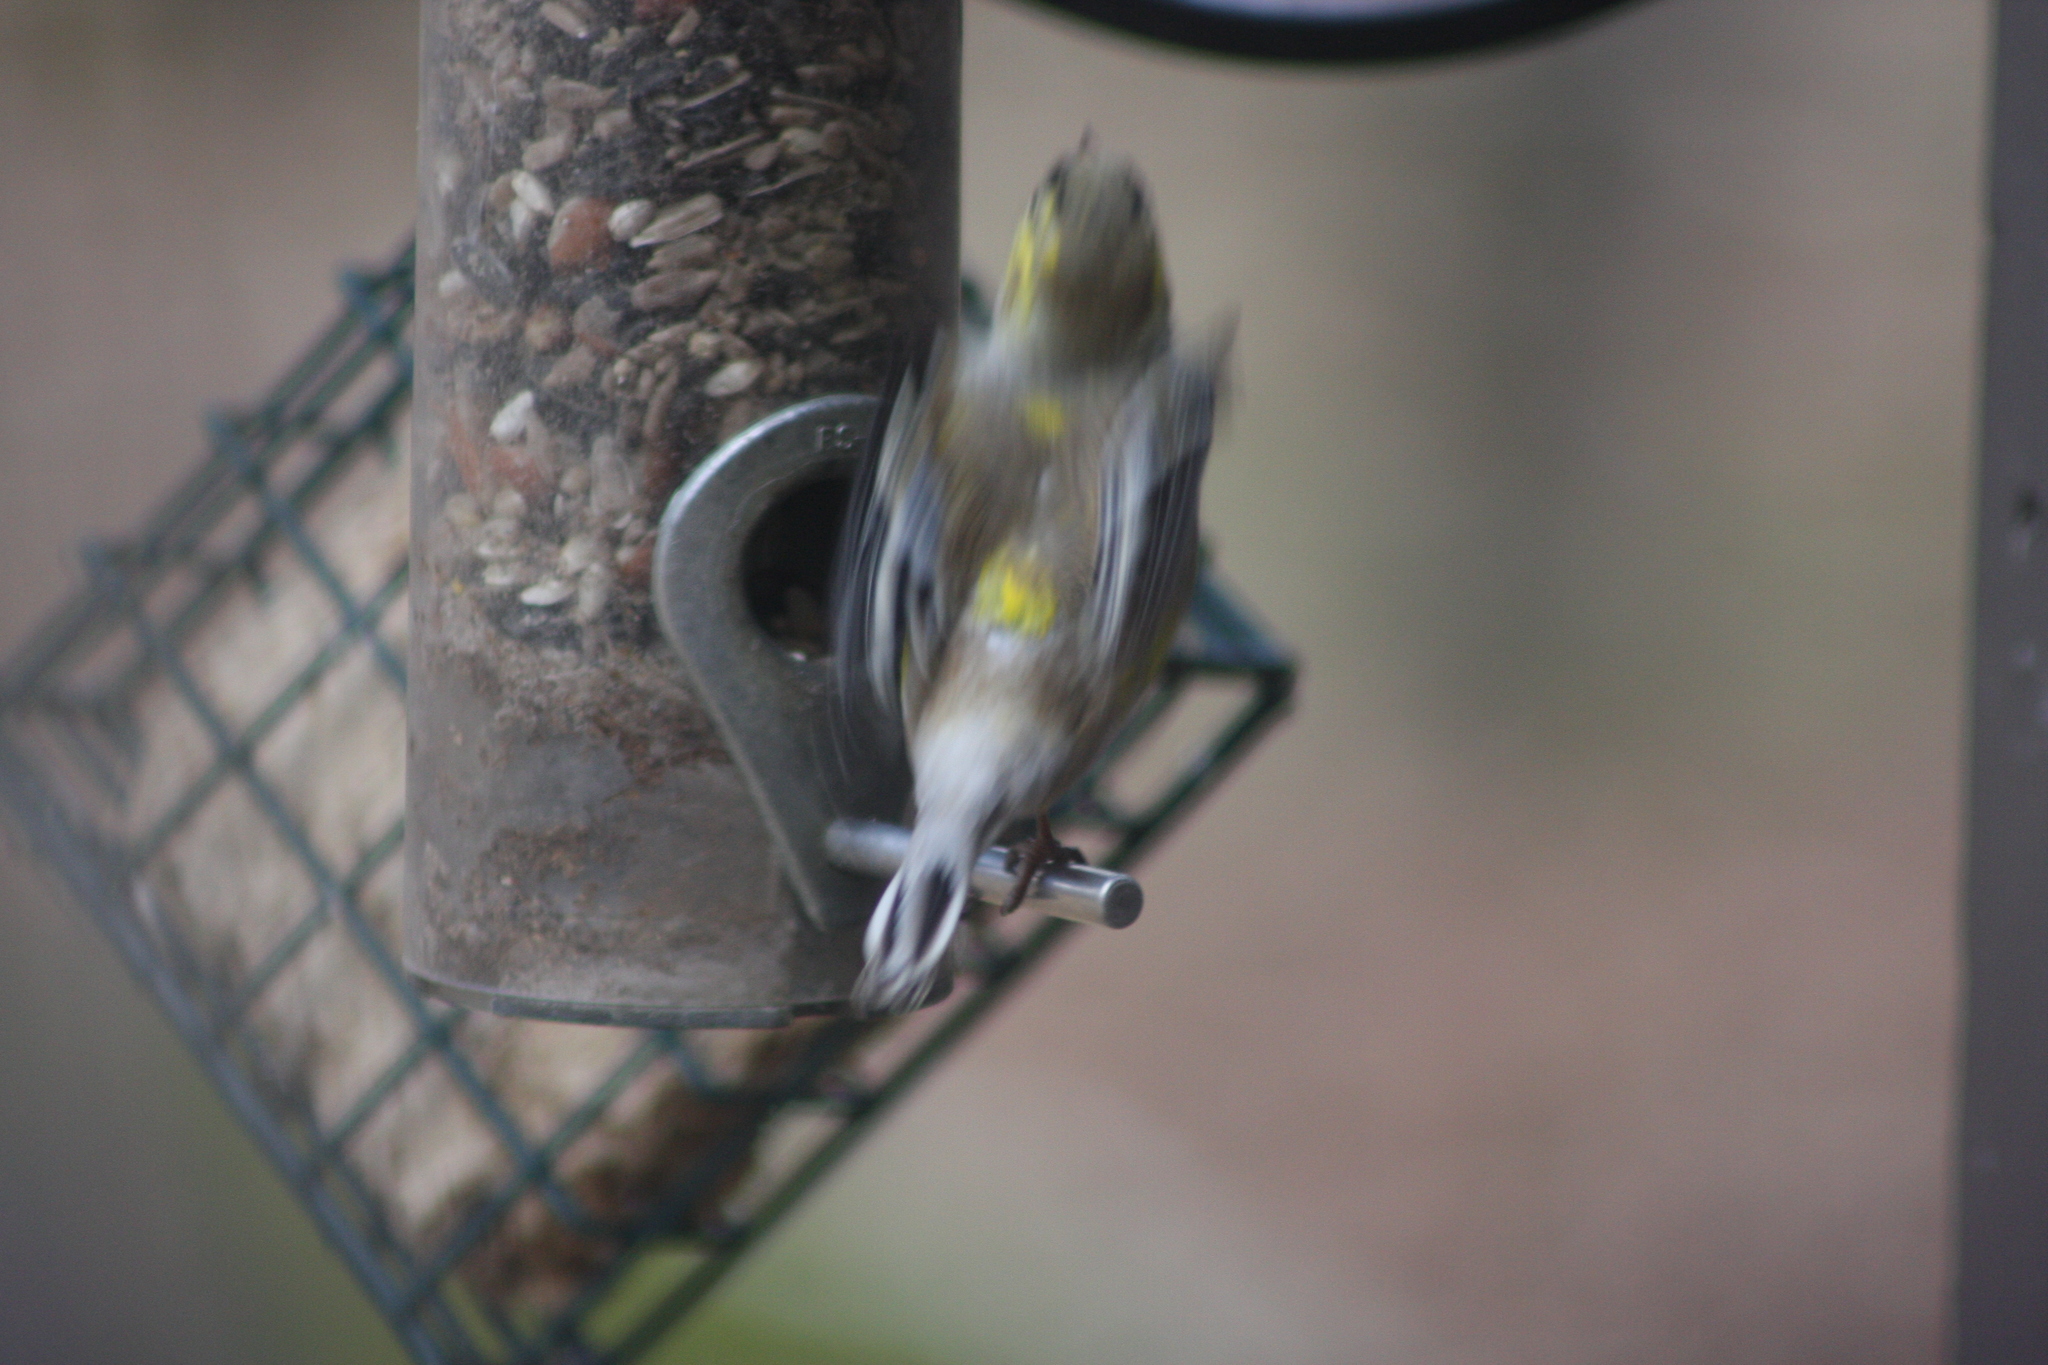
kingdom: Animalia
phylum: Chordata
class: Aves
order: Passeriformes
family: Fringillidae
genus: Spinus
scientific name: Spinus tristis
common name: American goldfinch
